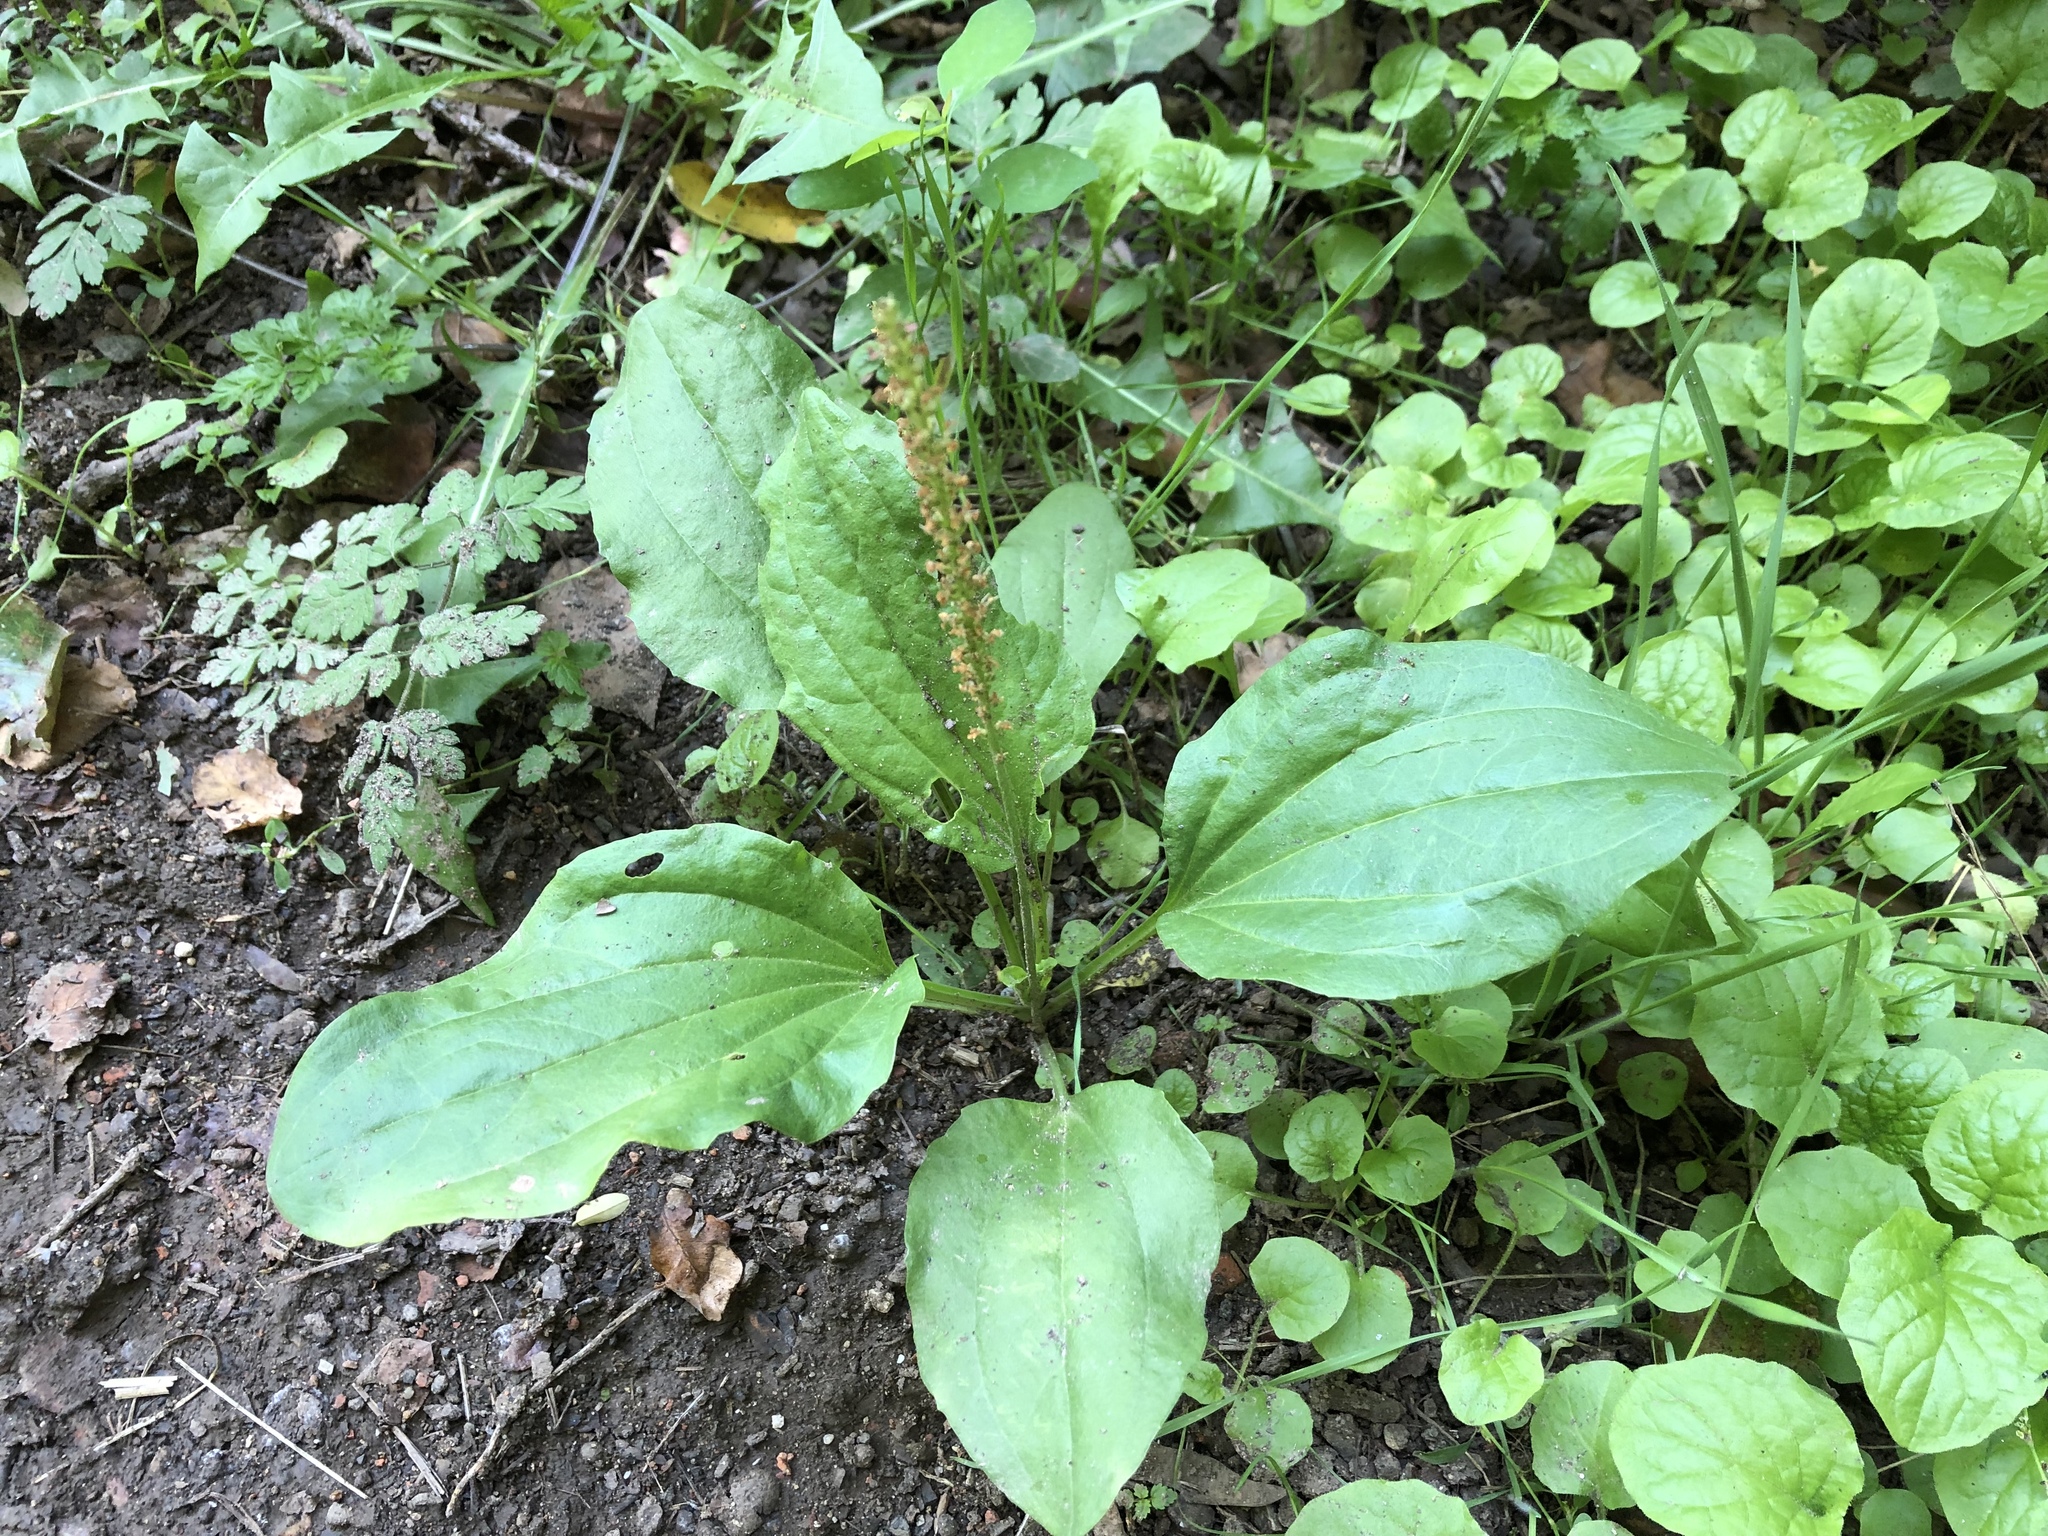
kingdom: Plantae
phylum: Tracheophyta
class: Magnoliopsida
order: Lamiales
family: Plantaginaceae
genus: Plantago
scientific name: Plantago major
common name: Common plantain
